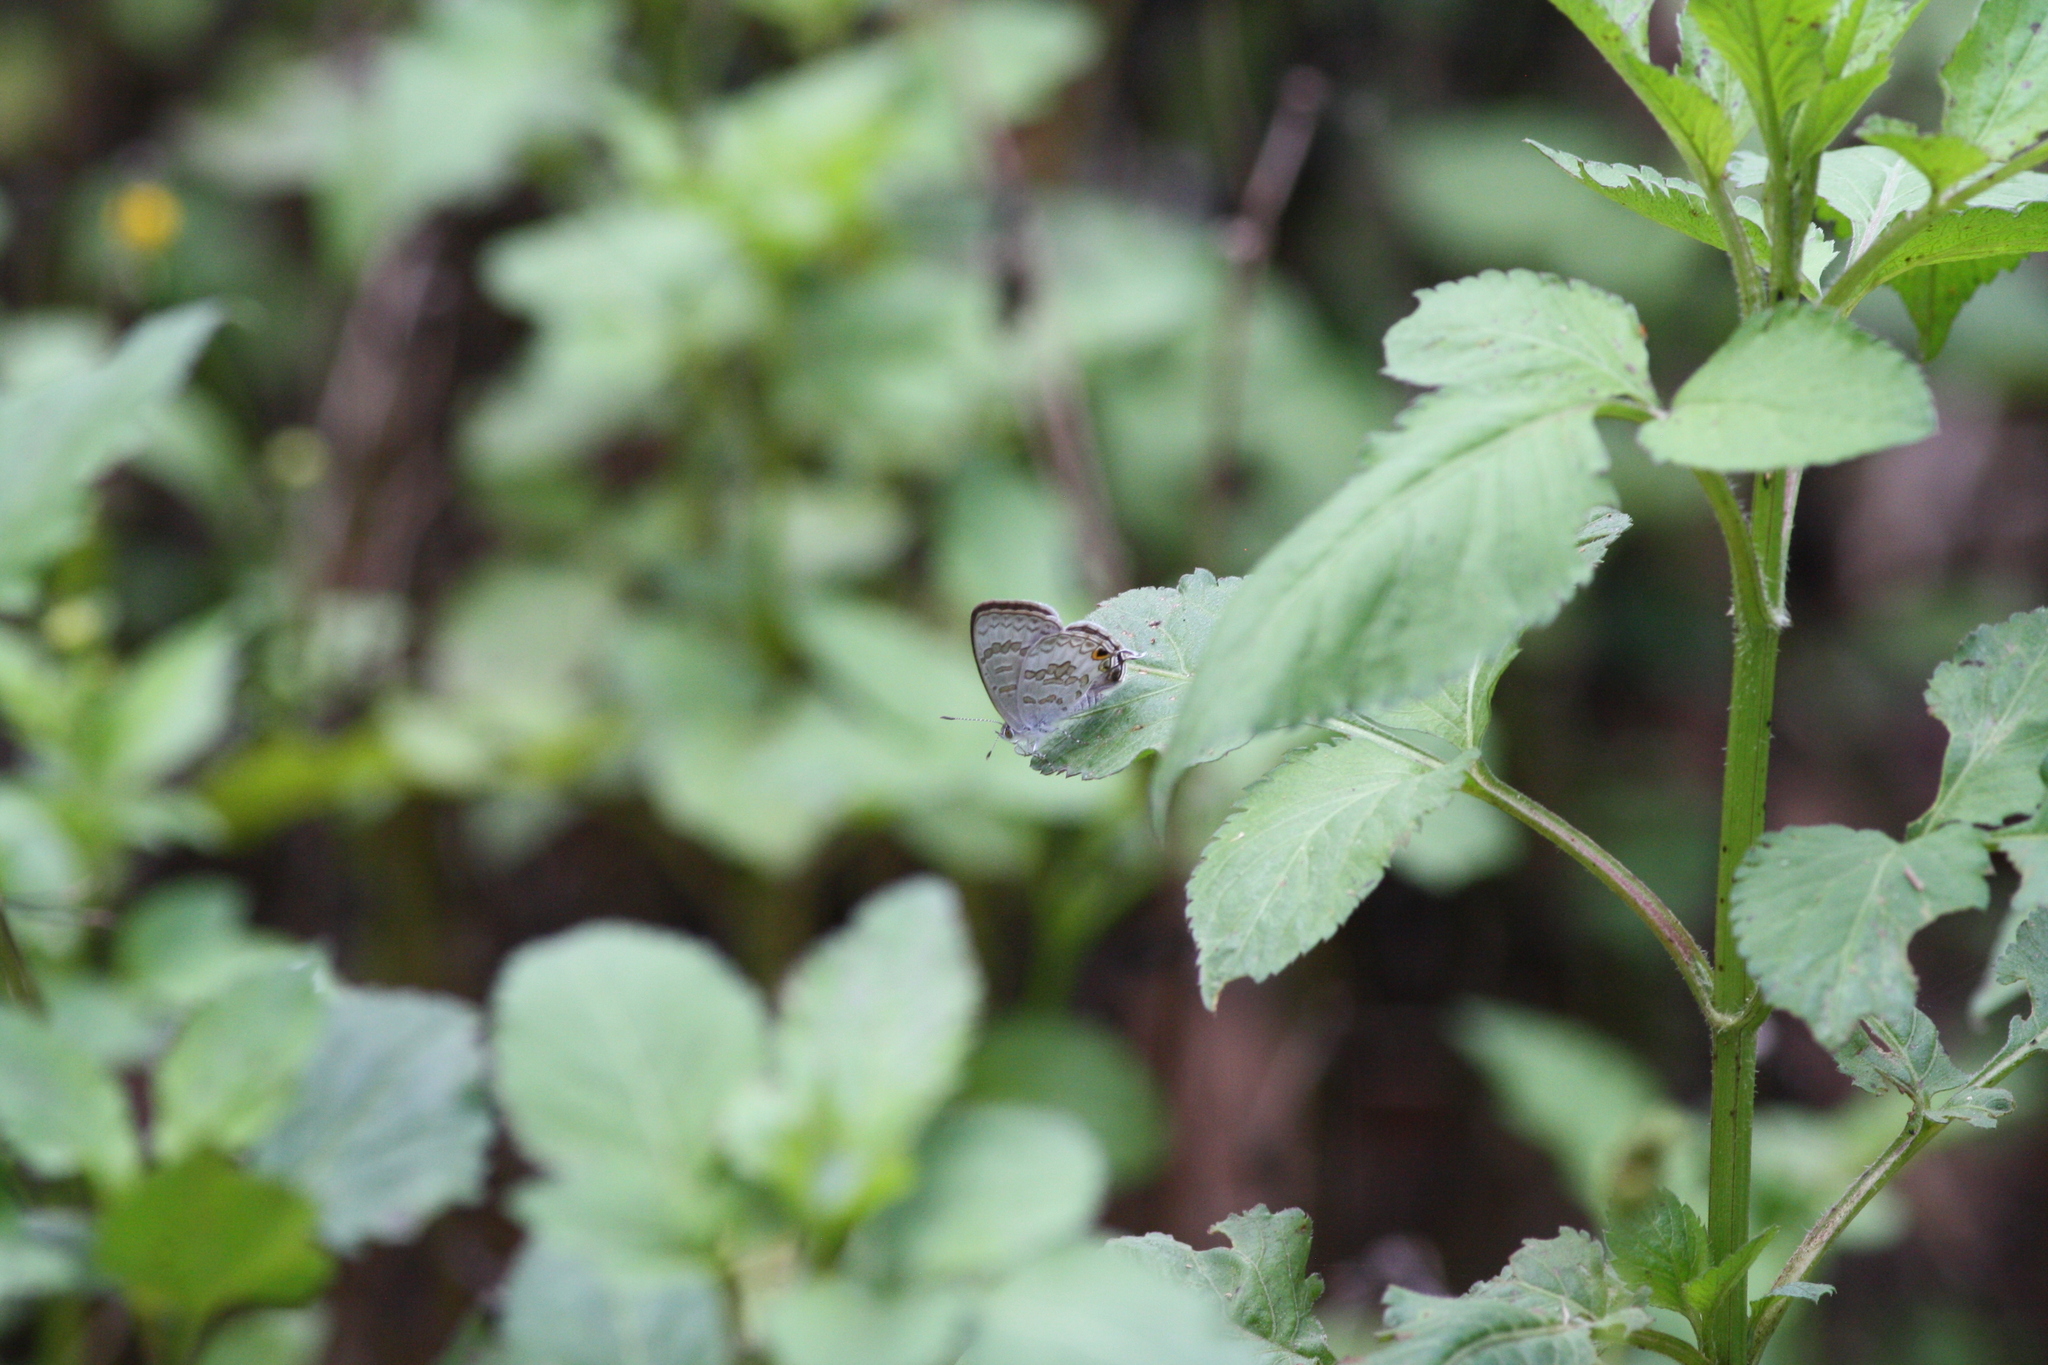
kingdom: Animalia
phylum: Arthropoda
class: Insecta
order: Lepidoptera
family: Lycaenidae
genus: Catopyrops
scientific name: Catopyrops florinda
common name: Speckled line-blue
